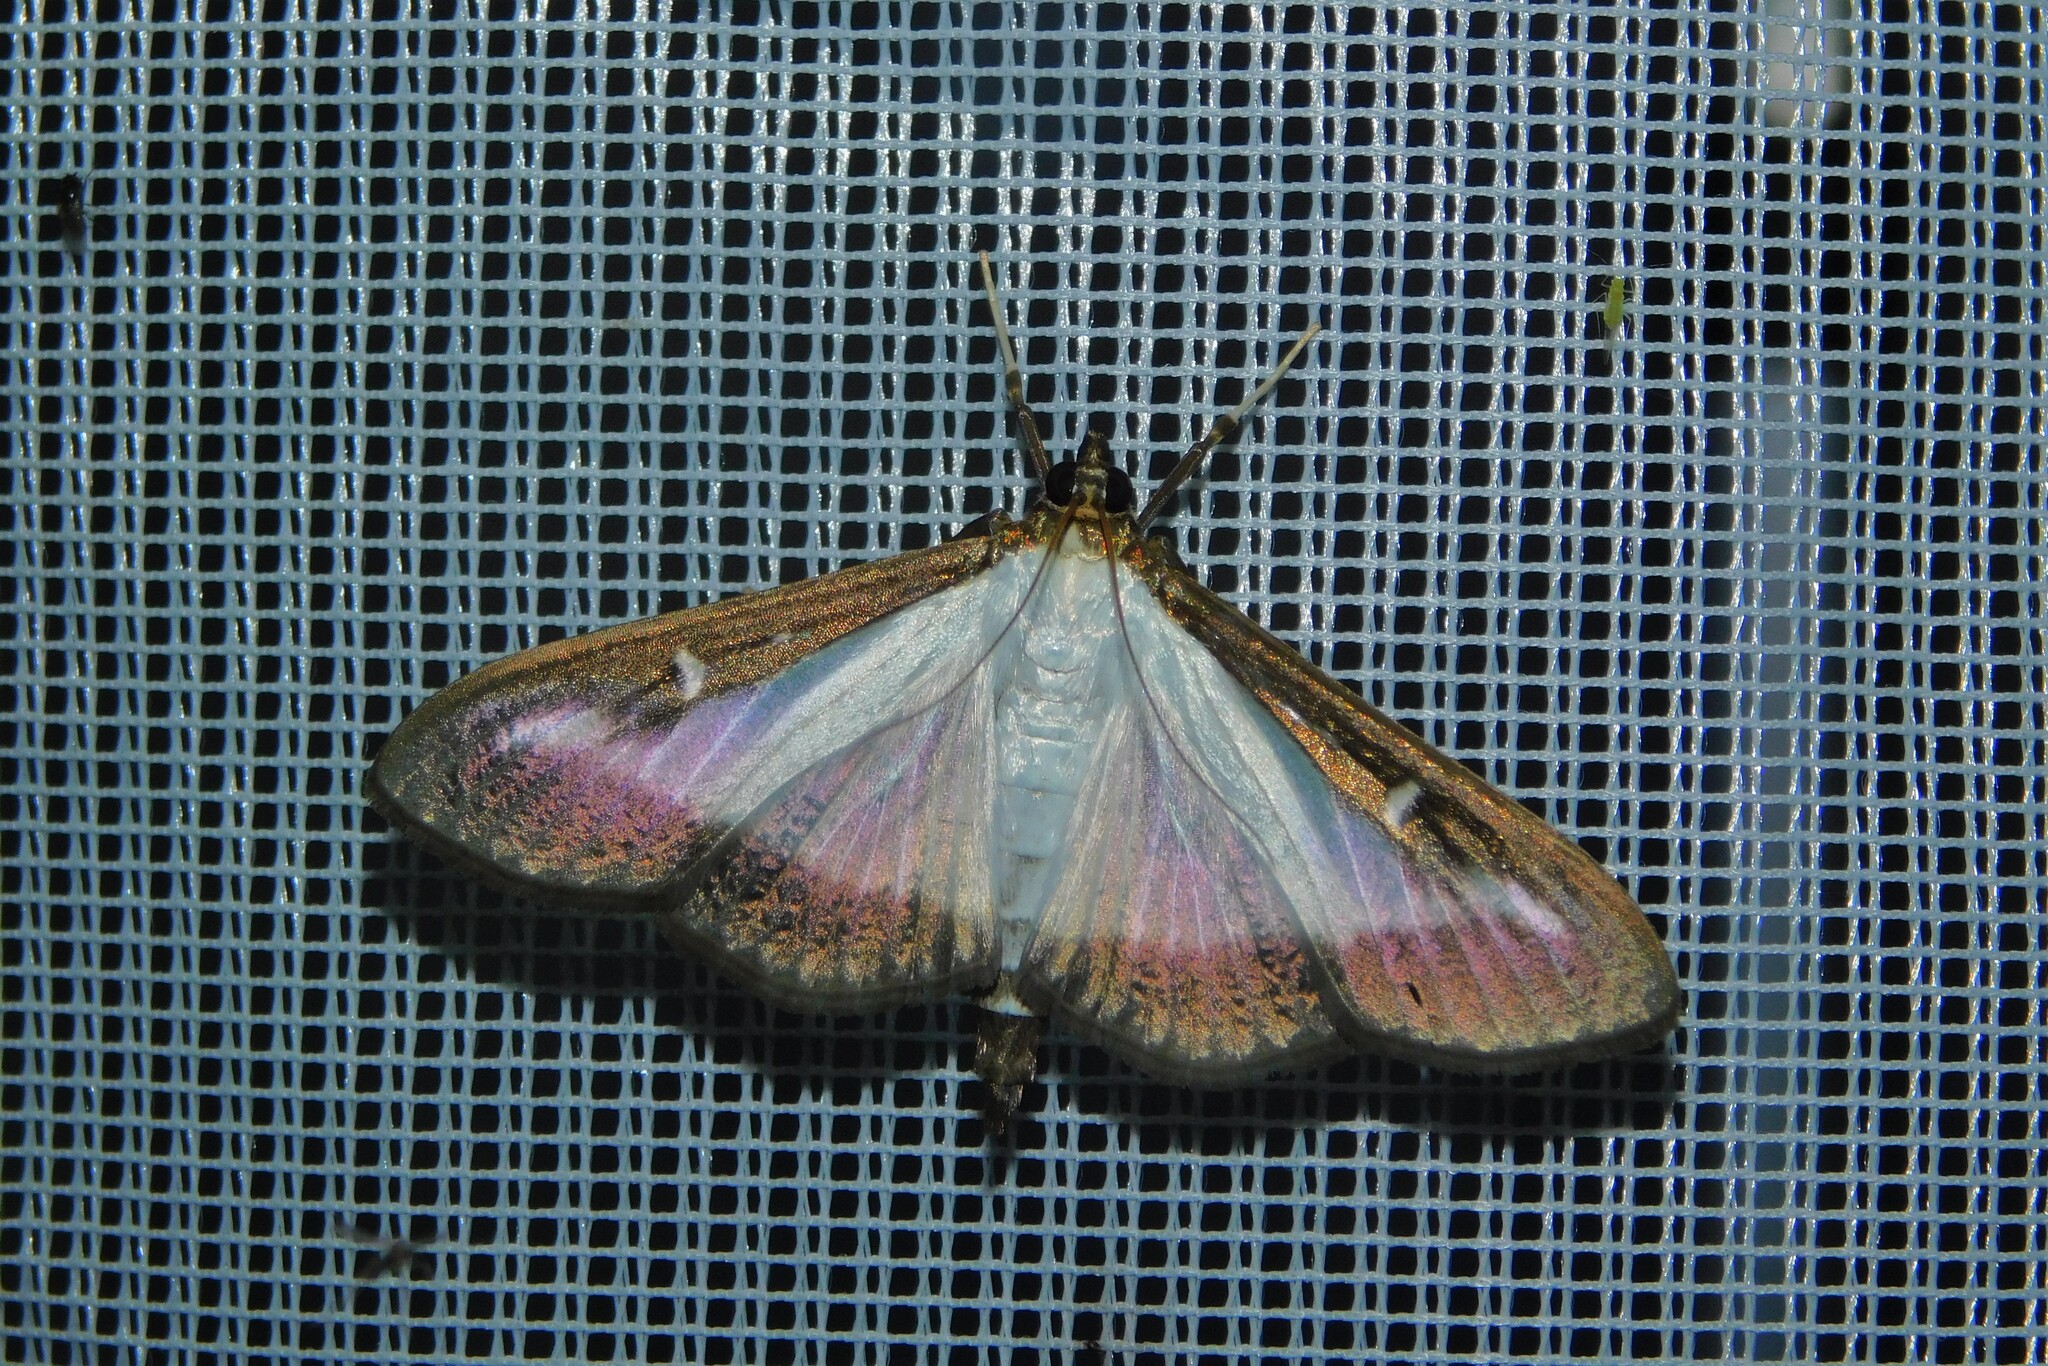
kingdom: Animalia
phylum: Arthropoda
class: Insecta
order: Lepidoptera
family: Crambidae
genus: Cydalima
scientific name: Cydalima perspectalis
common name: Box tree moth
